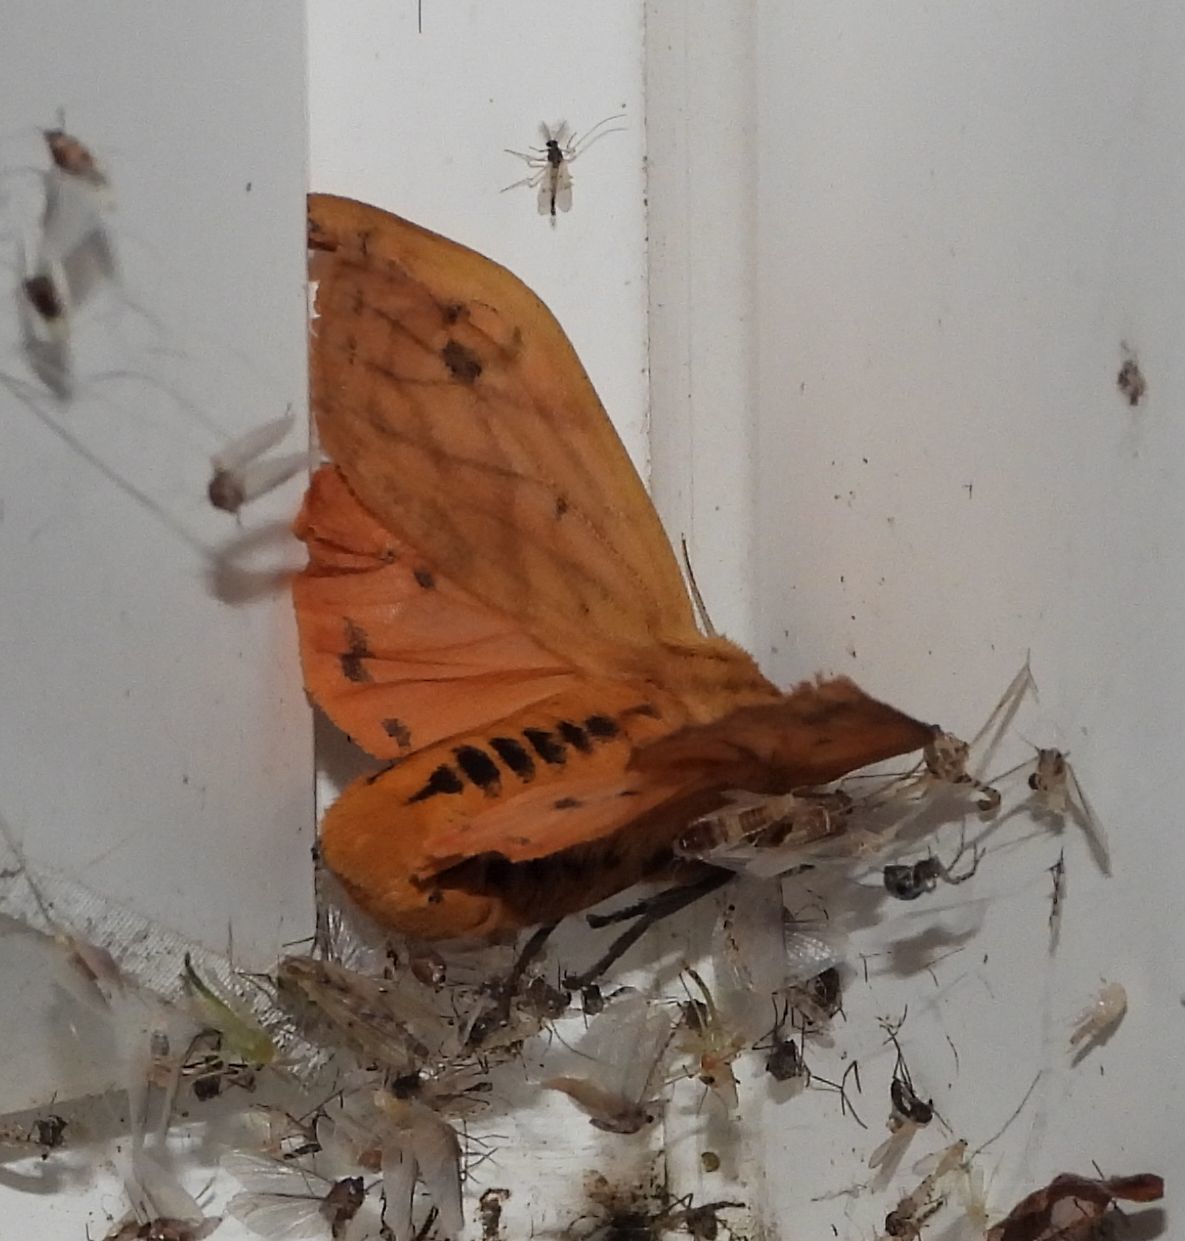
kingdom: Animalia
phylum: Arthropoda
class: Insecta
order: Lepidoptera
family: Erebidae
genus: Pyrrharctia
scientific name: Pyrrharctia isabella
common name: Isabella tiger moth
